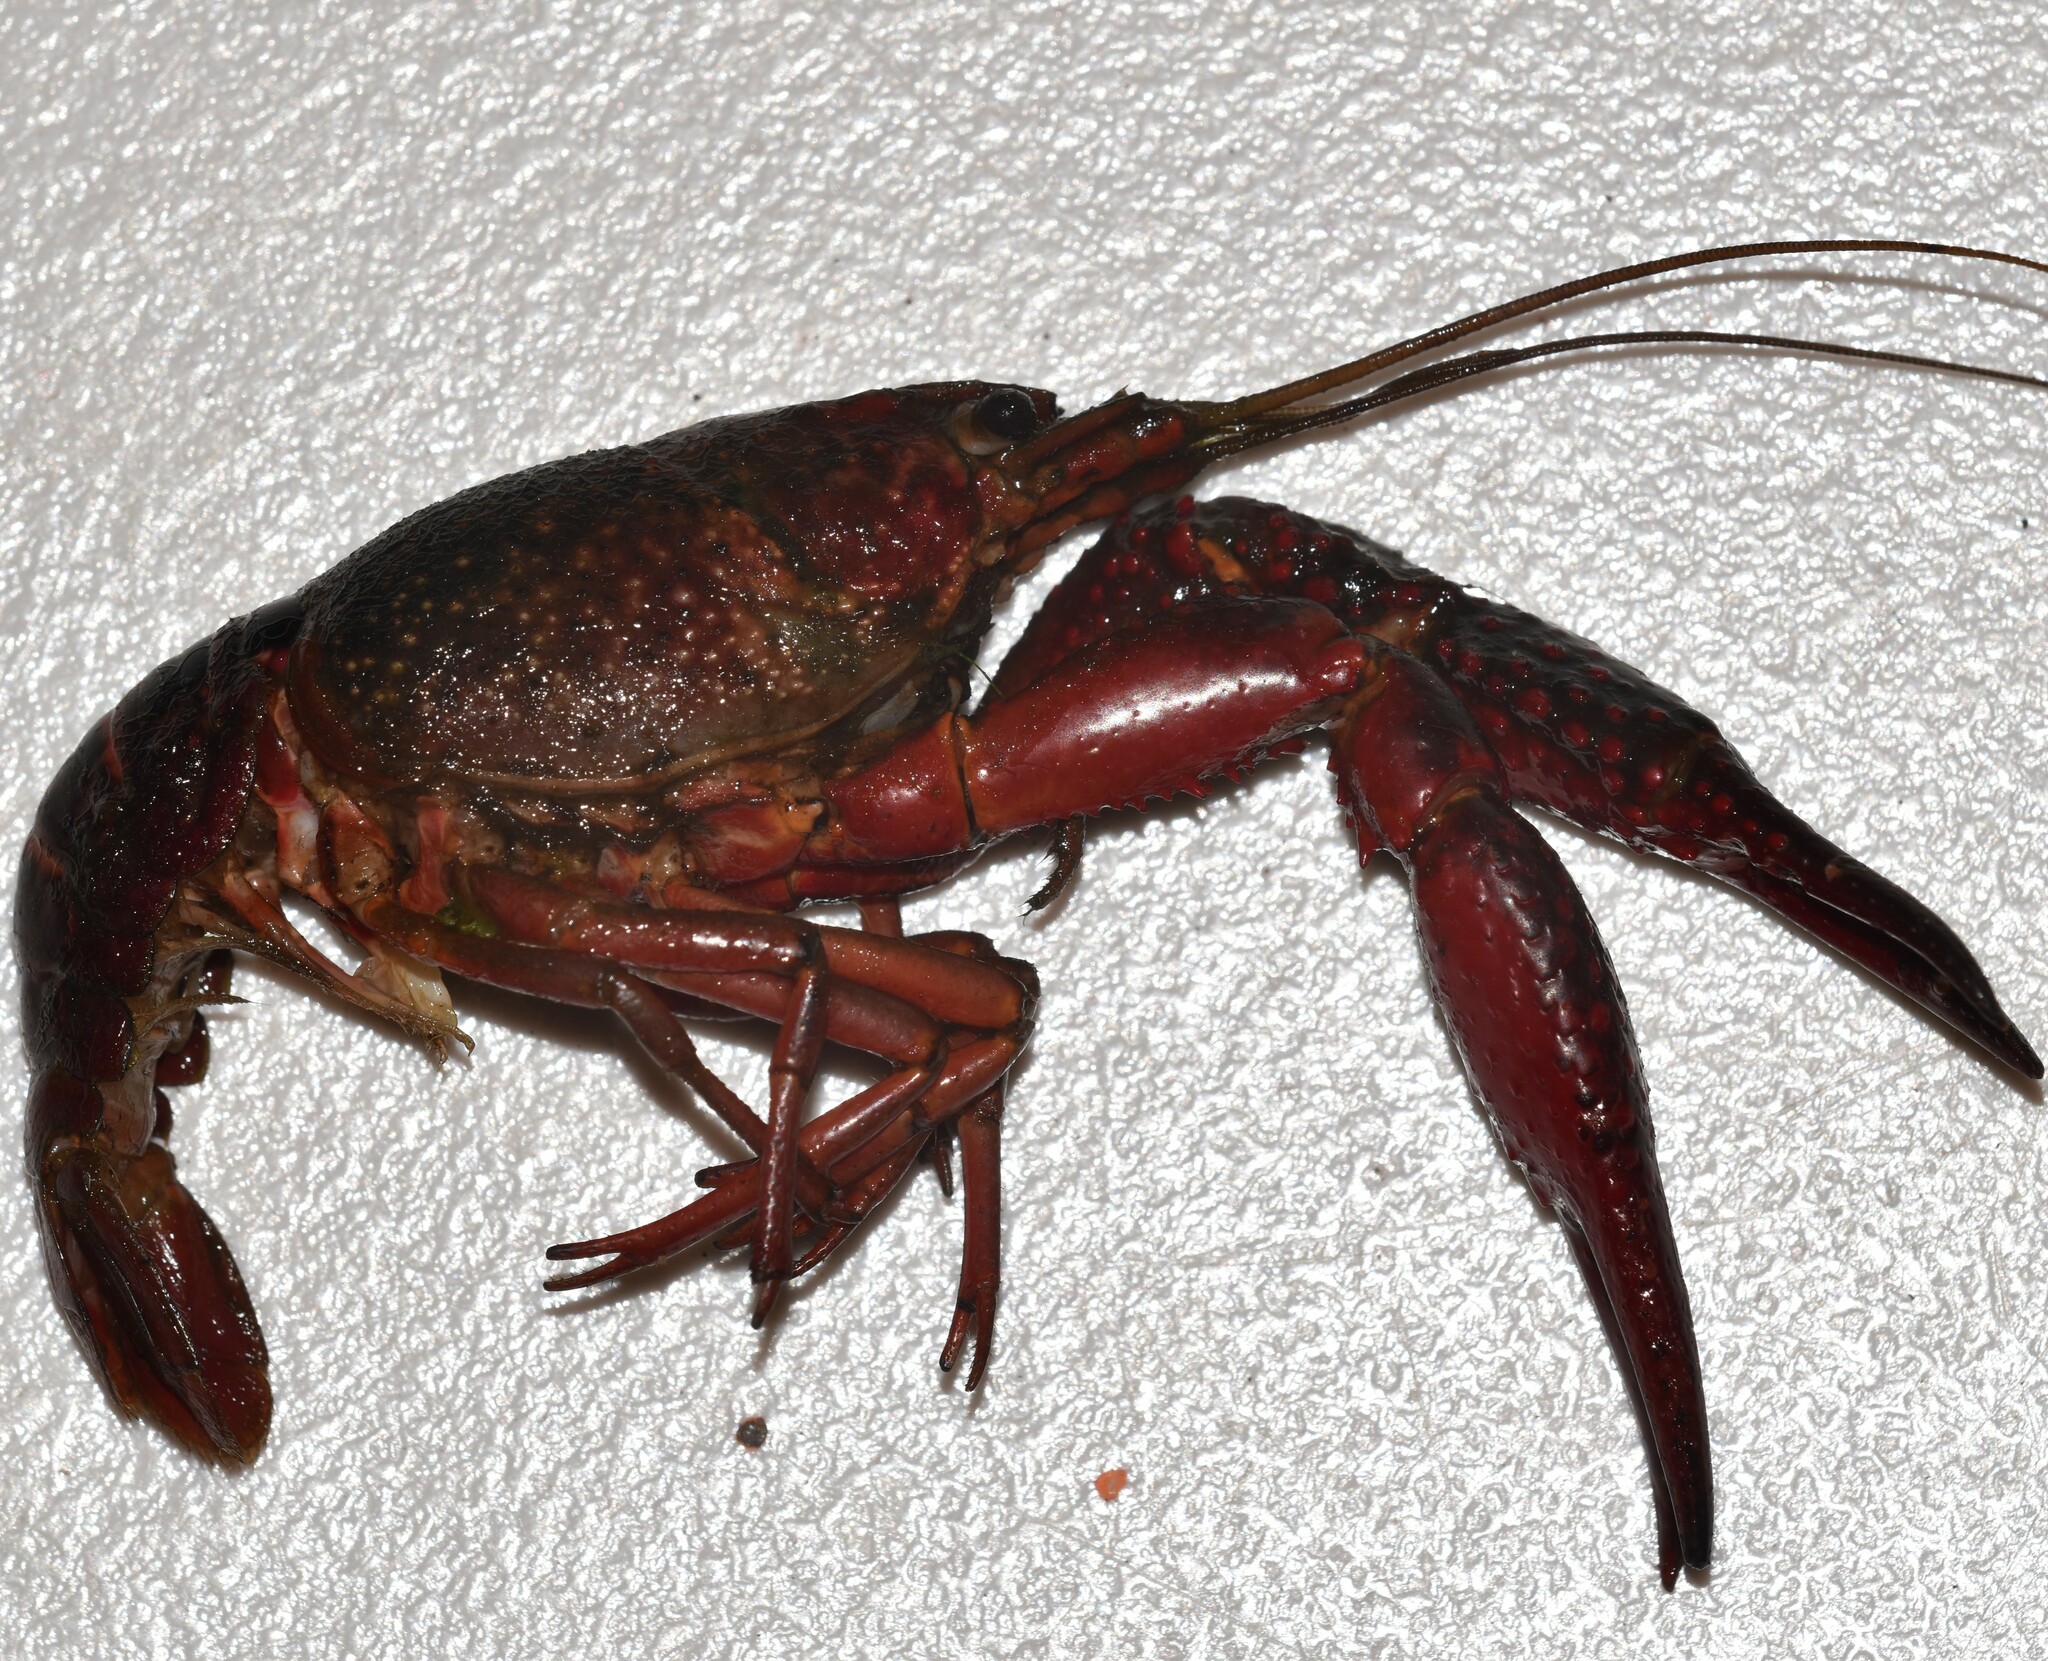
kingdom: Animalia
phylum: Arthropoda
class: Malacostraca
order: Decapoda
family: Cambaridae
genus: Procambarus
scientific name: Procambarus clarkii
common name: Red swamp crayfish
